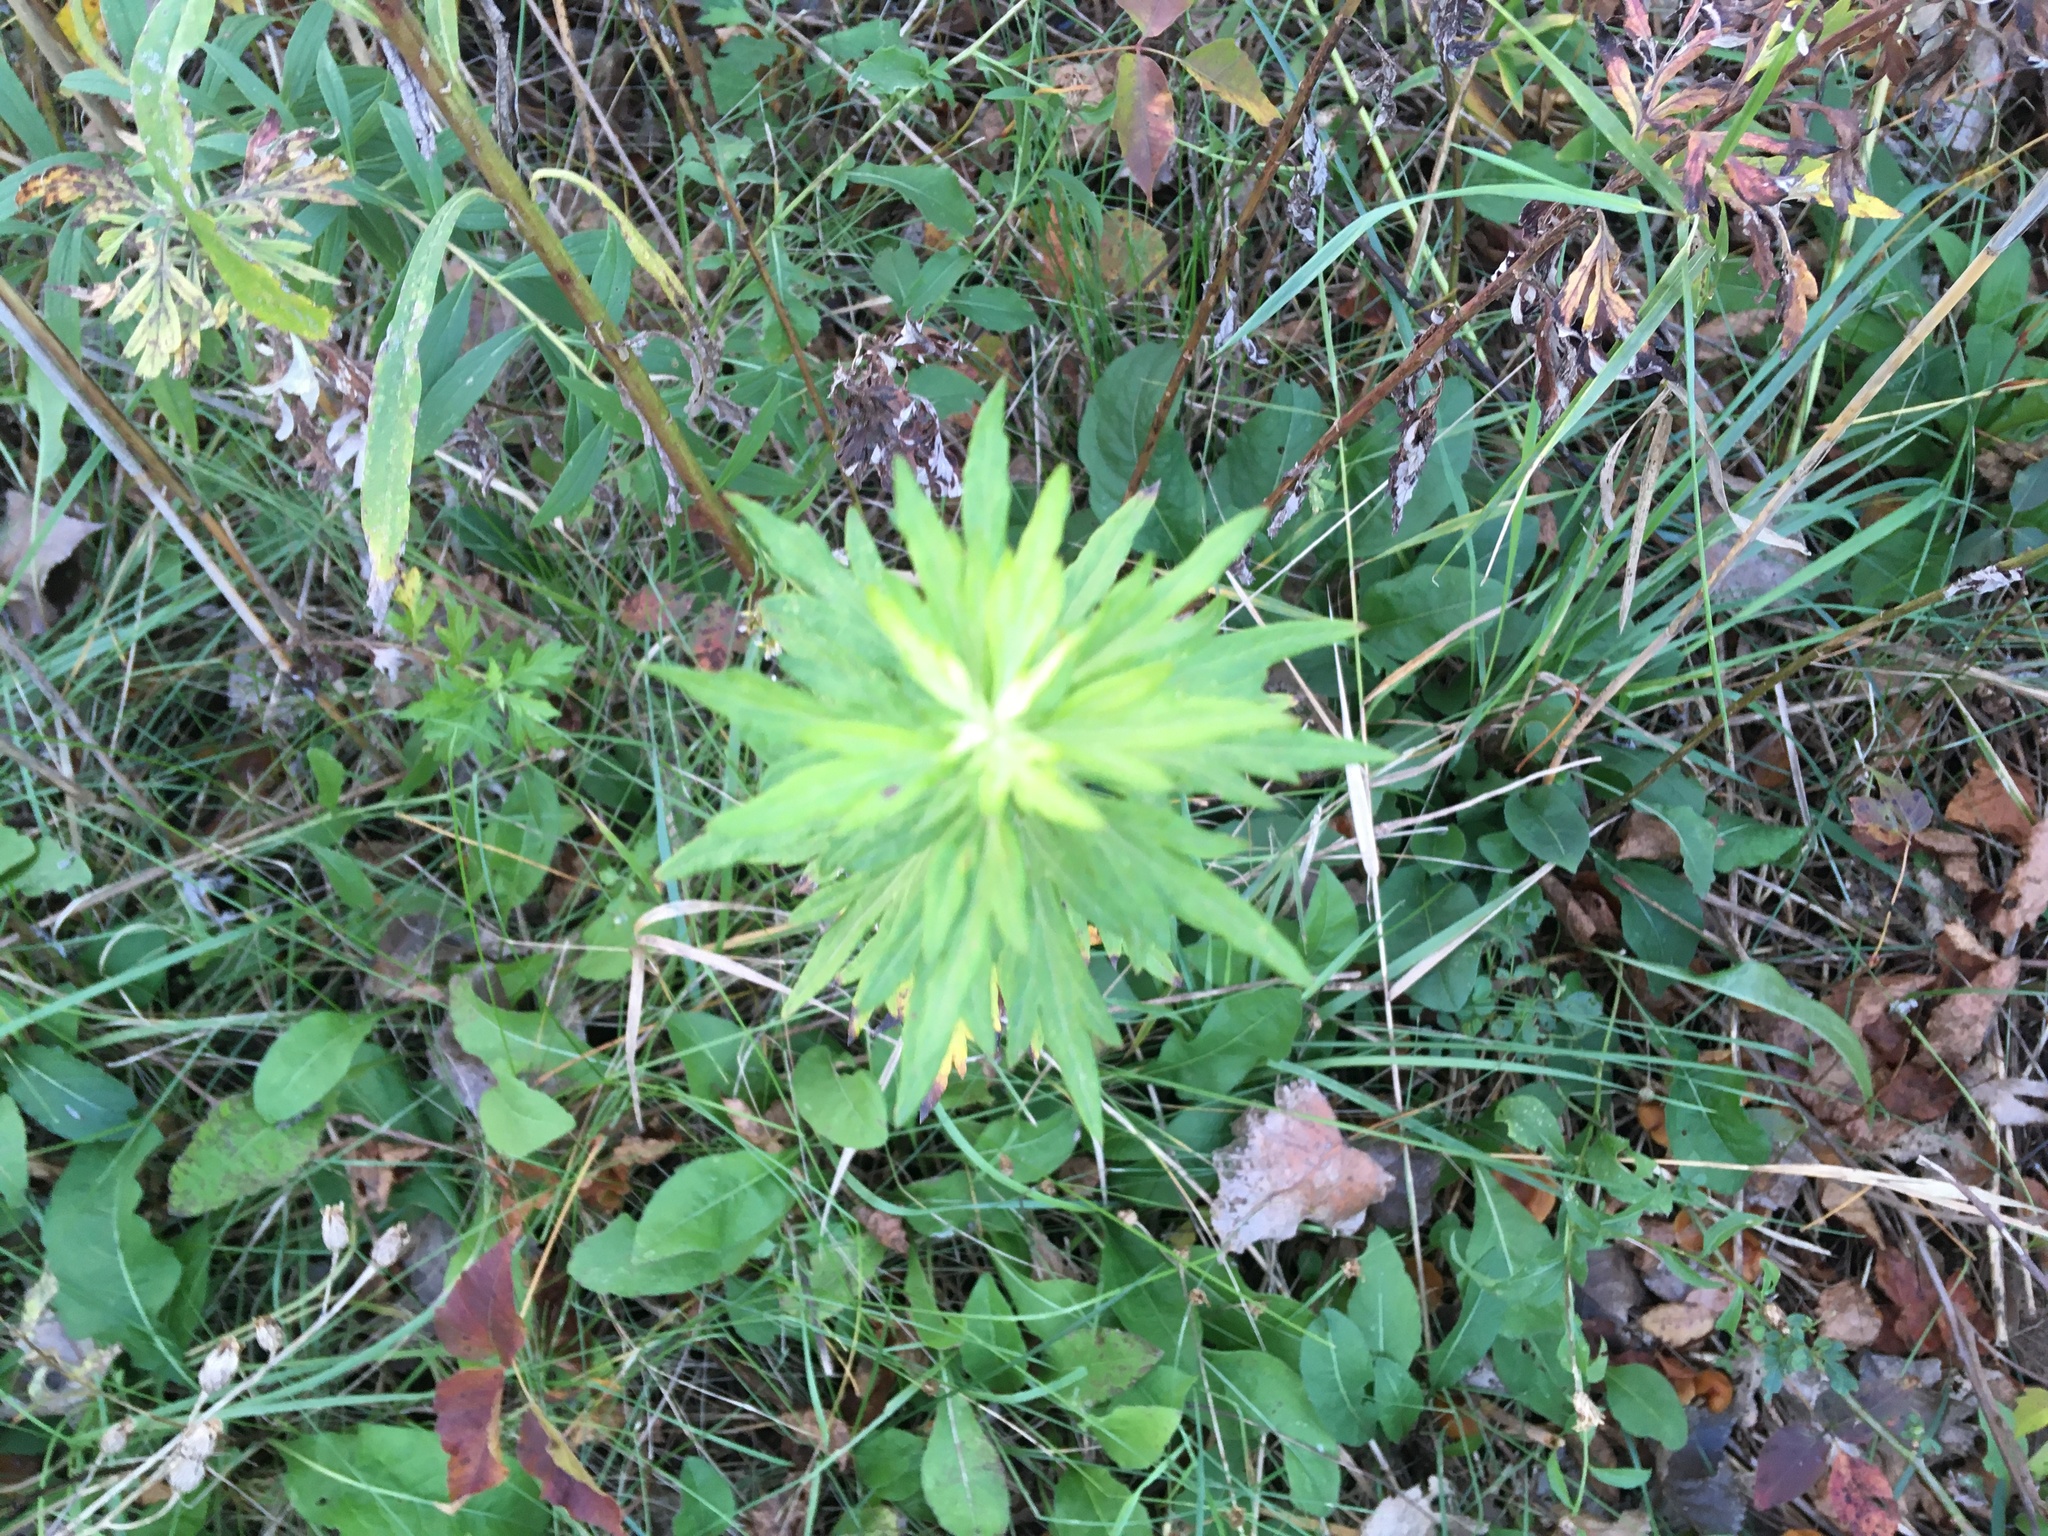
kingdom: Plantae
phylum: Tracheophyta
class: Magnoliopsida
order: Asterales
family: Asteraceae
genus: Artemisia
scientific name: Artemisia vulgaris
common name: Mugwort
